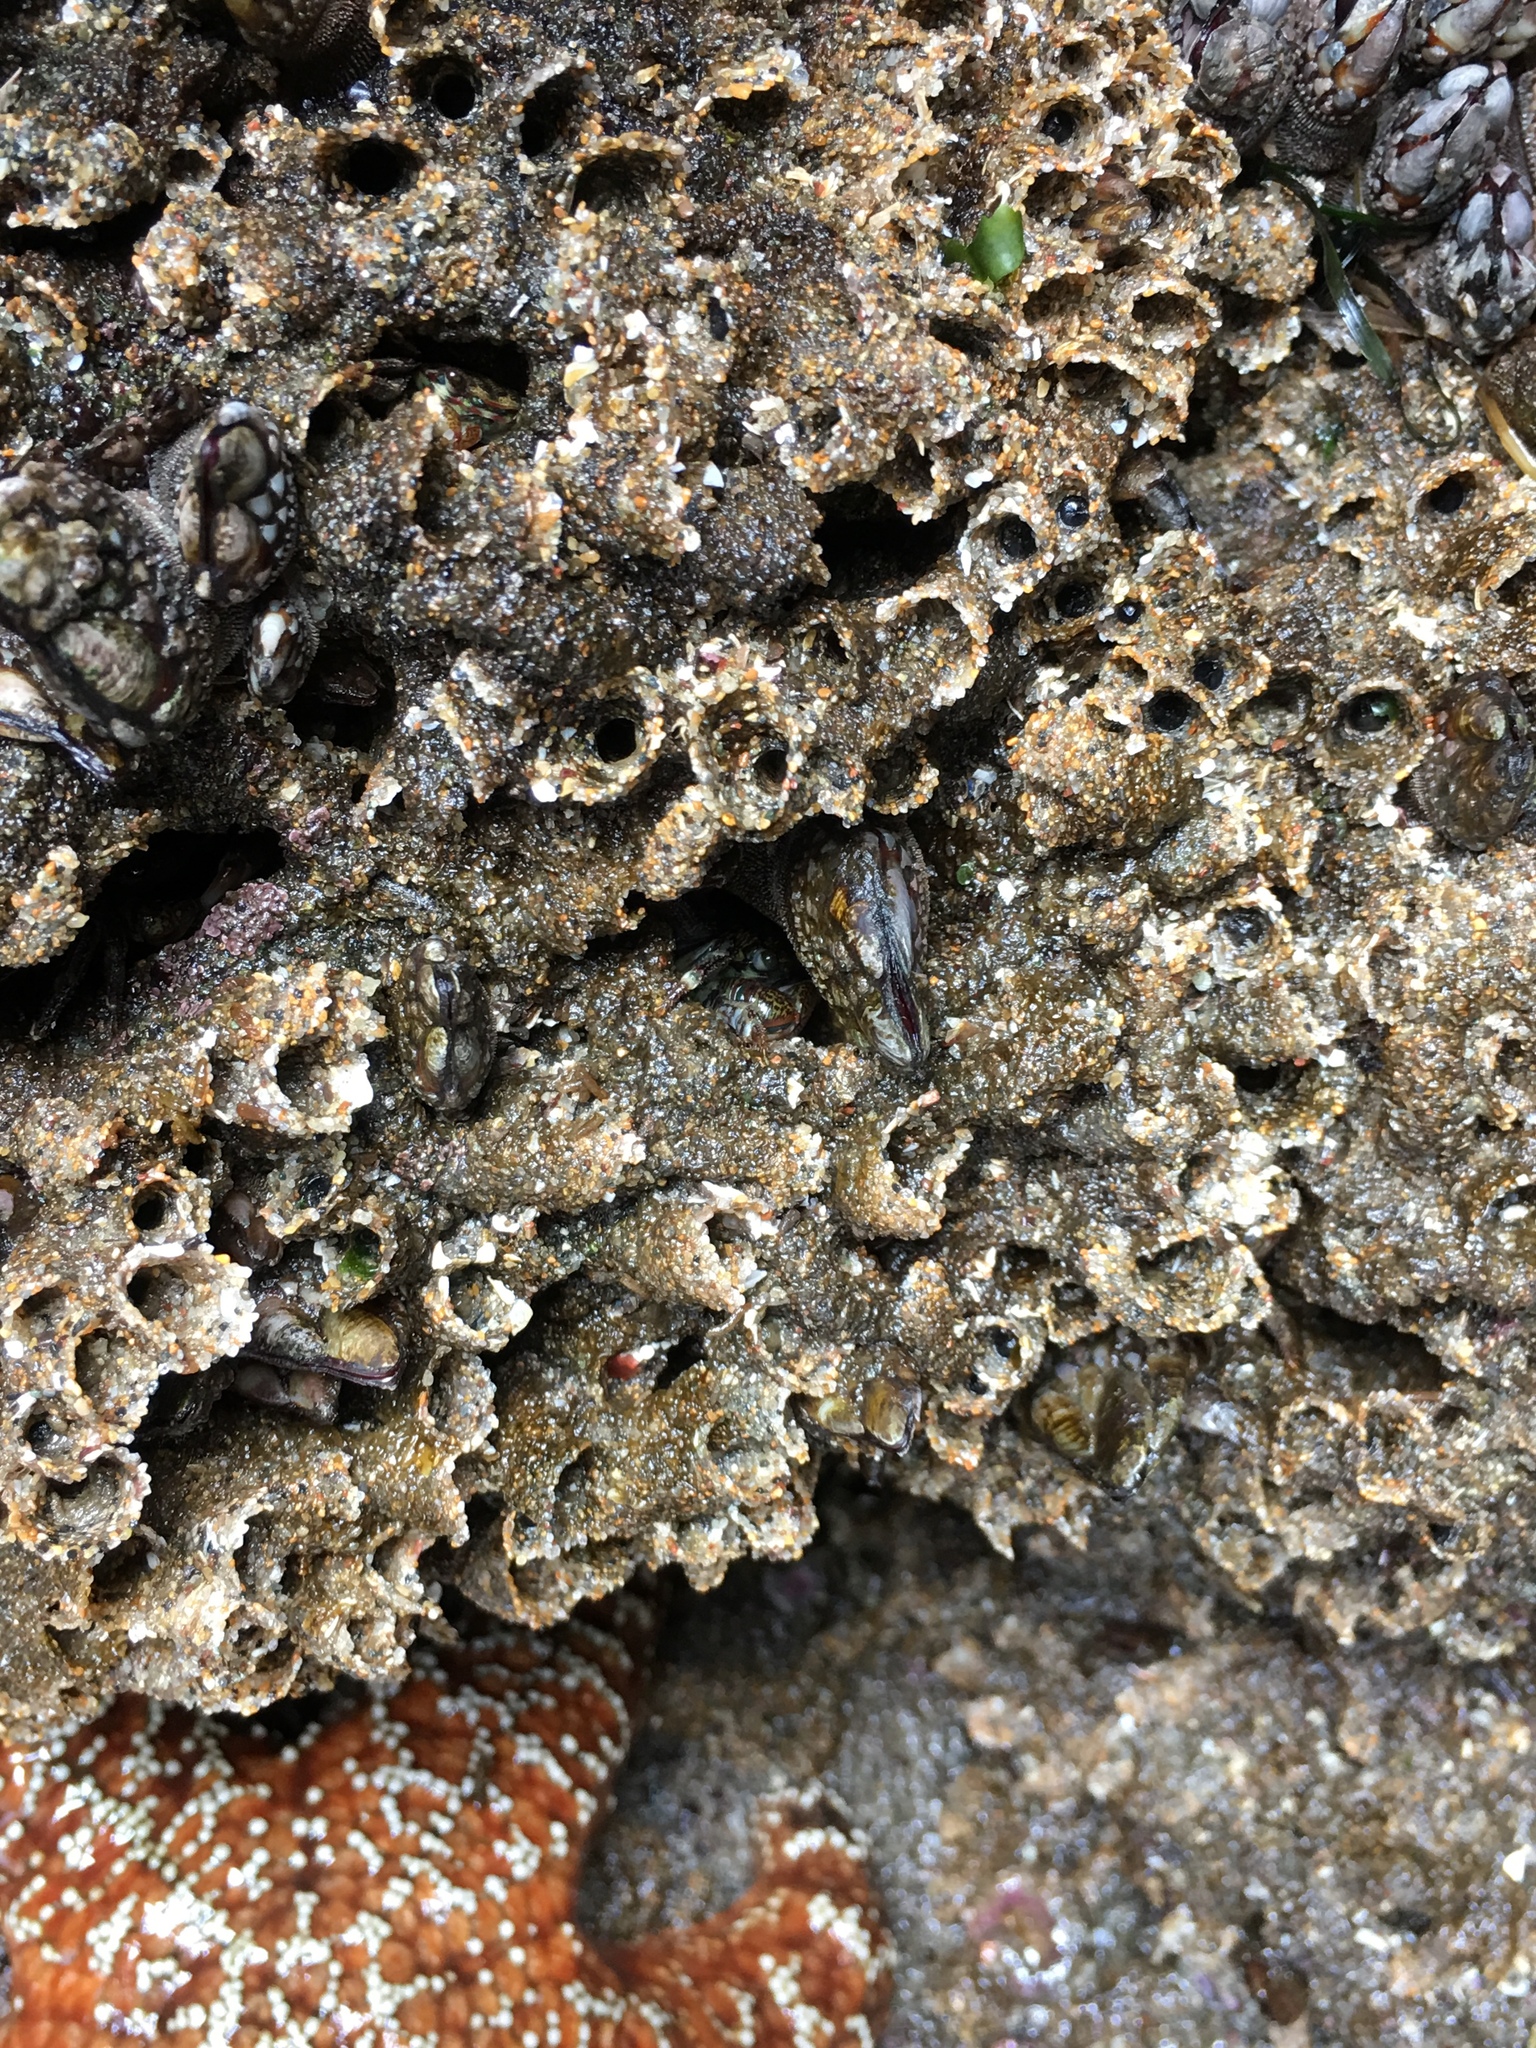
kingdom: Animalia
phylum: Annelida
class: Polychaeta
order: Sabellida
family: Sabellariidae
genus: Phragmatopoma
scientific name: Phragmatopoma californica
